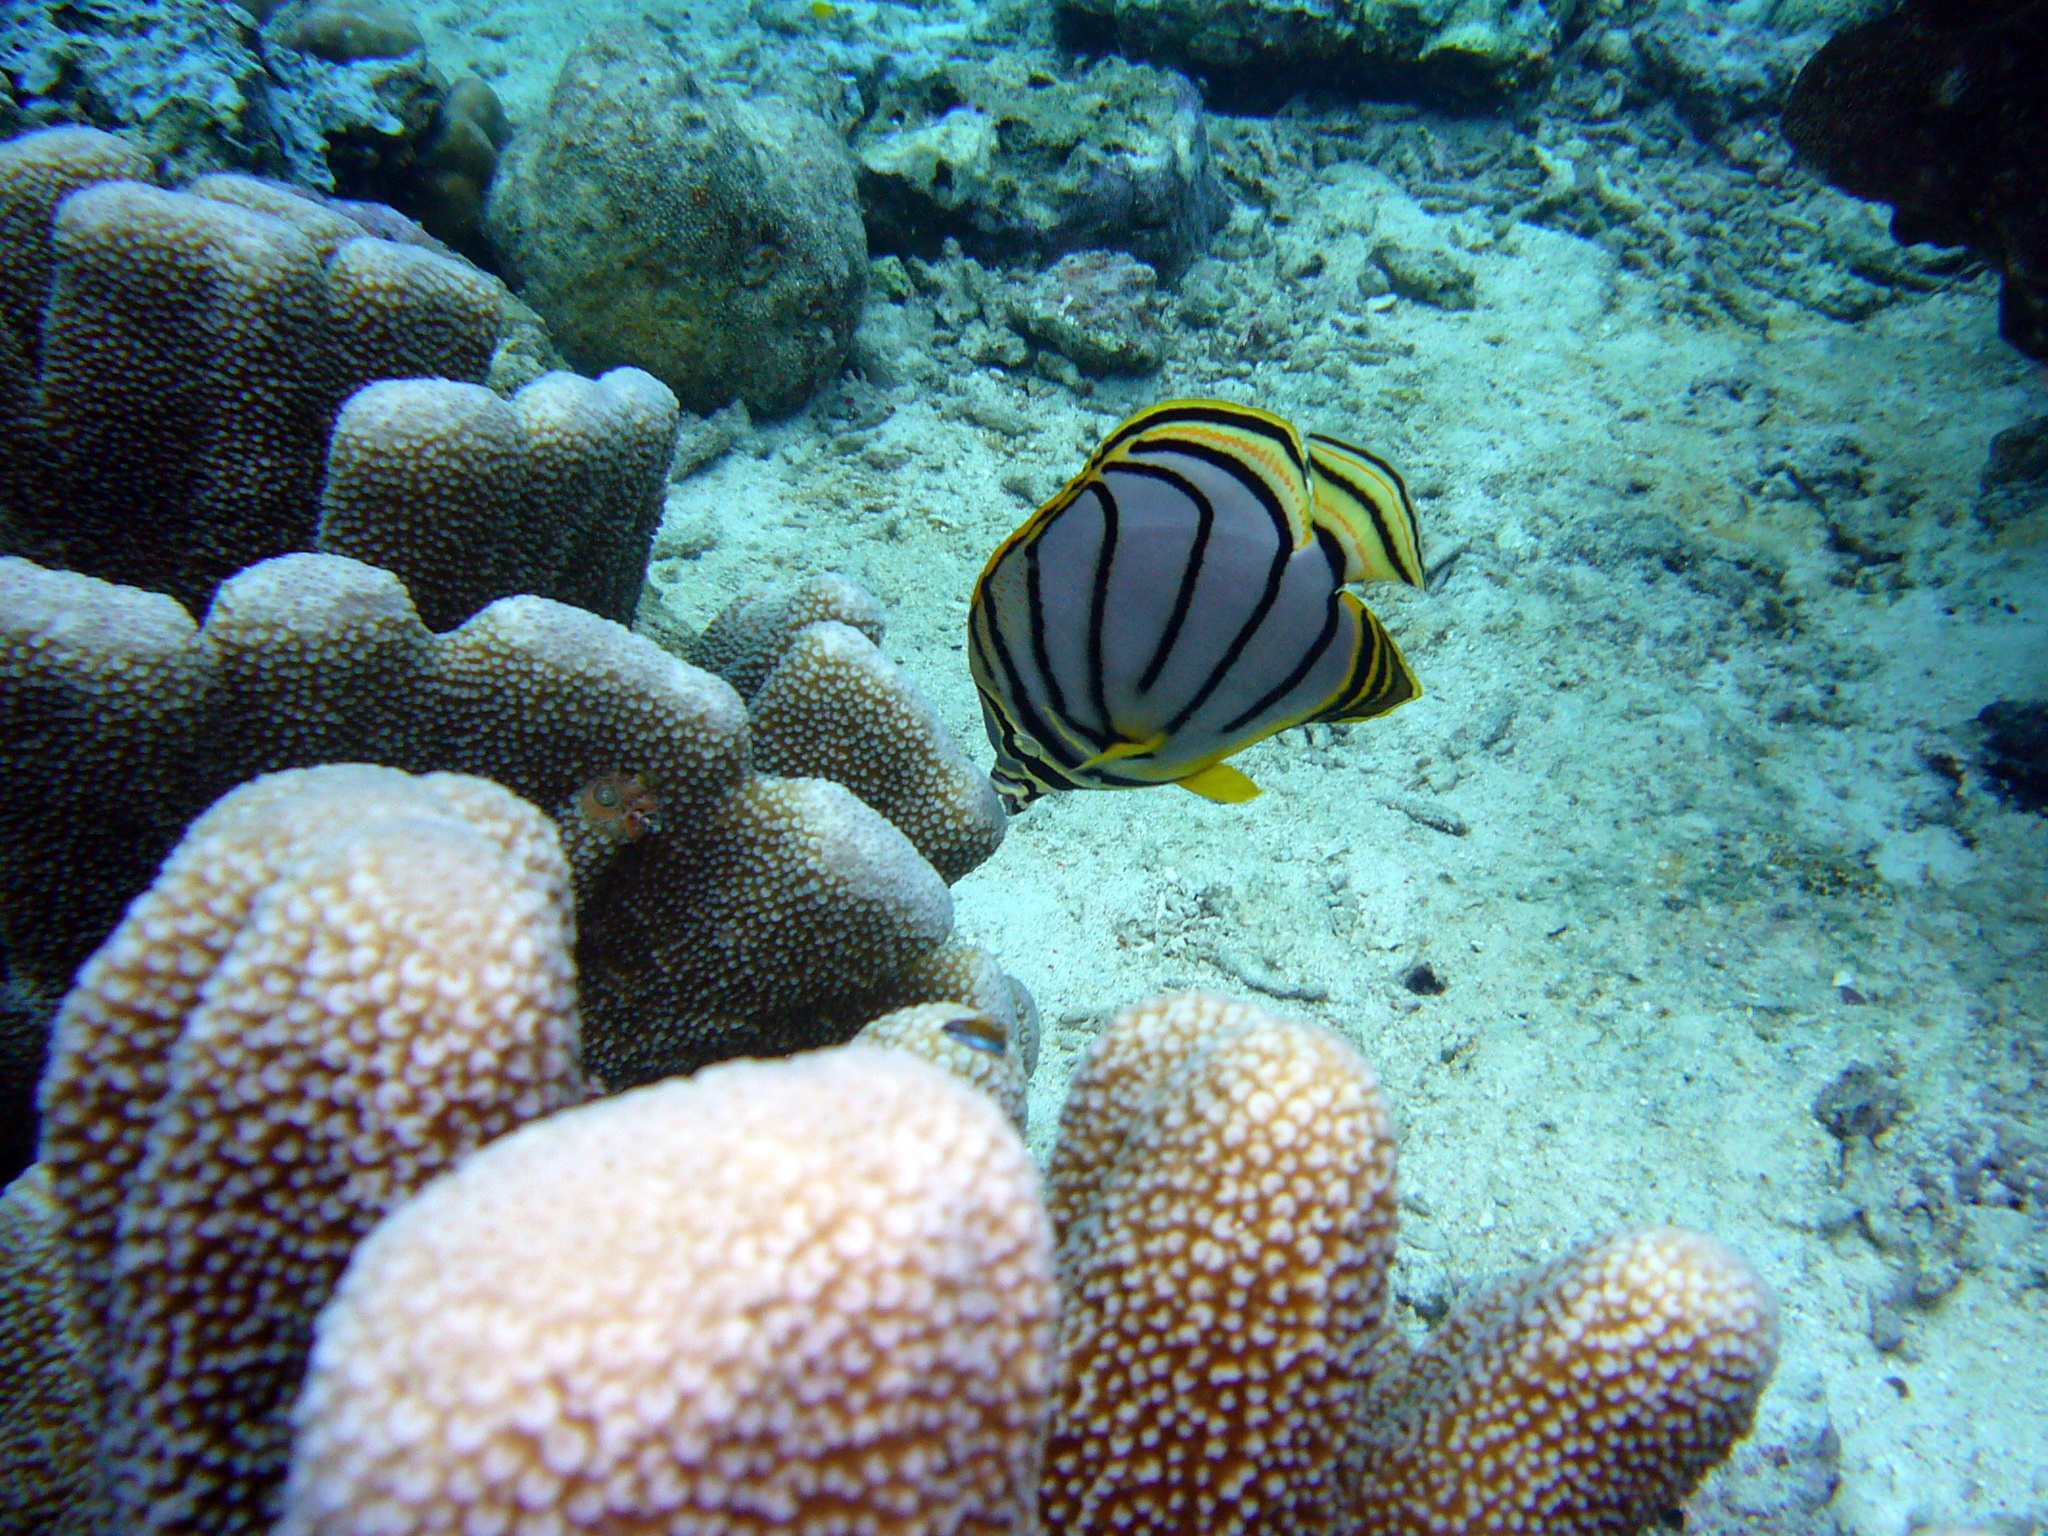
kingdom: Animalia
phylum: Chordata
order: Perciformes
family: Chaetodontidae
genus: Chaetodon
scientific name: Chaetodon meyeri
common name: Meyer's butterflyfish
